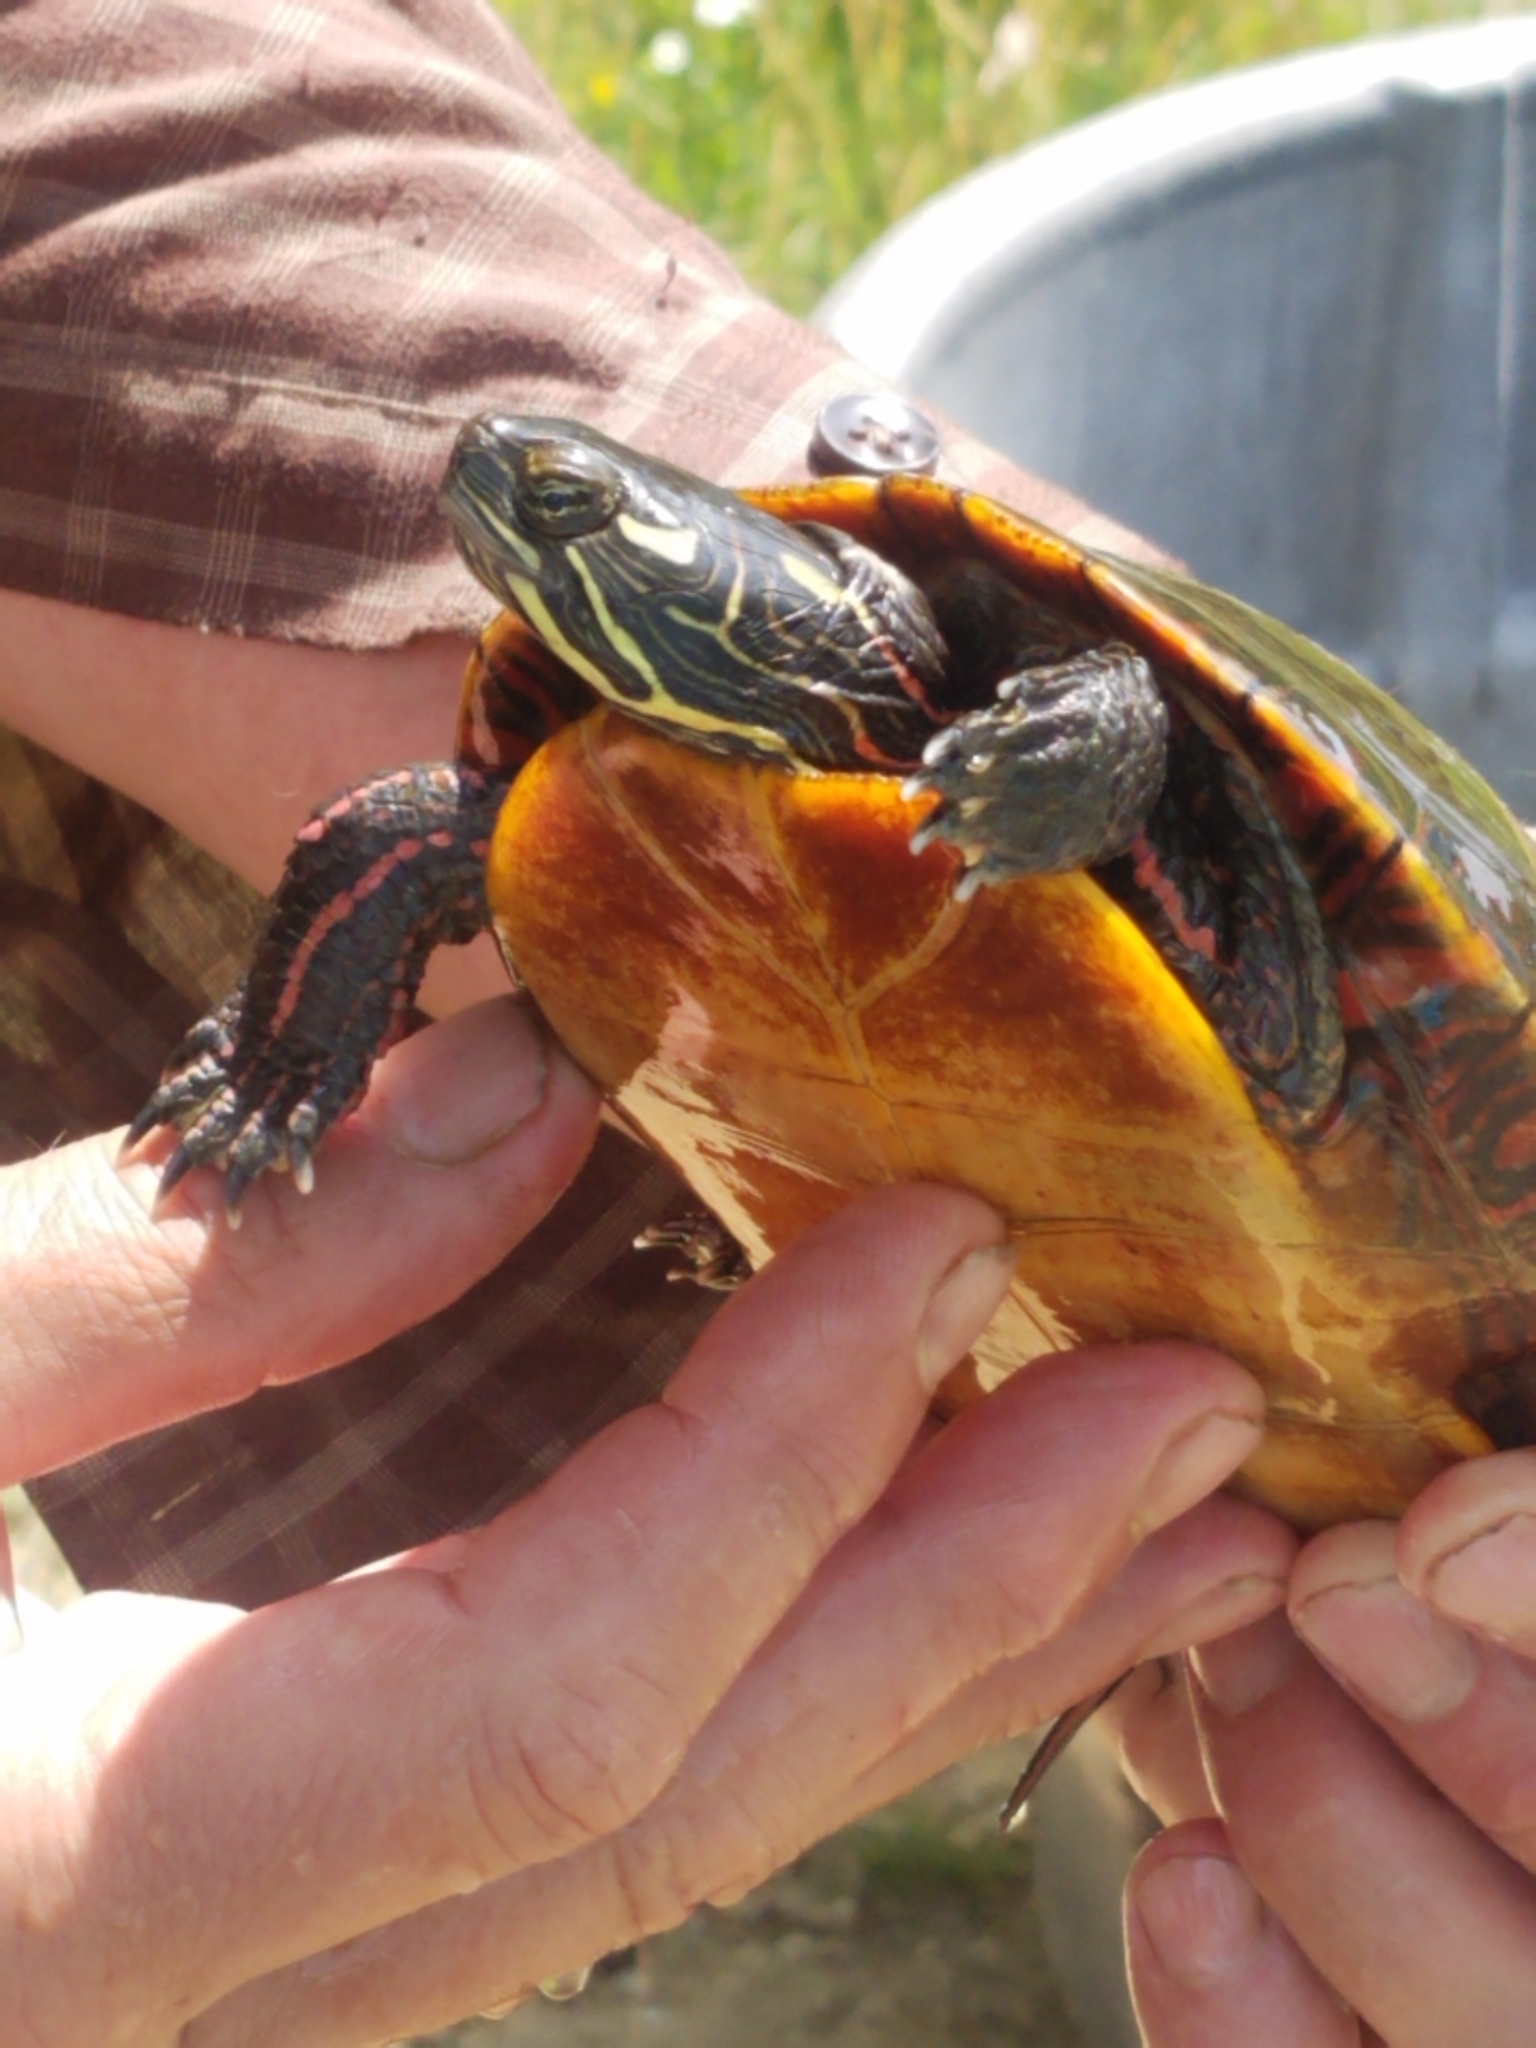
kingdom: Animalia
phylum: Chordata
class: Testudines
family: Emydidae
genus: Chrysemys
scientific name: Chrysemys picta
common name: Painted turtle
